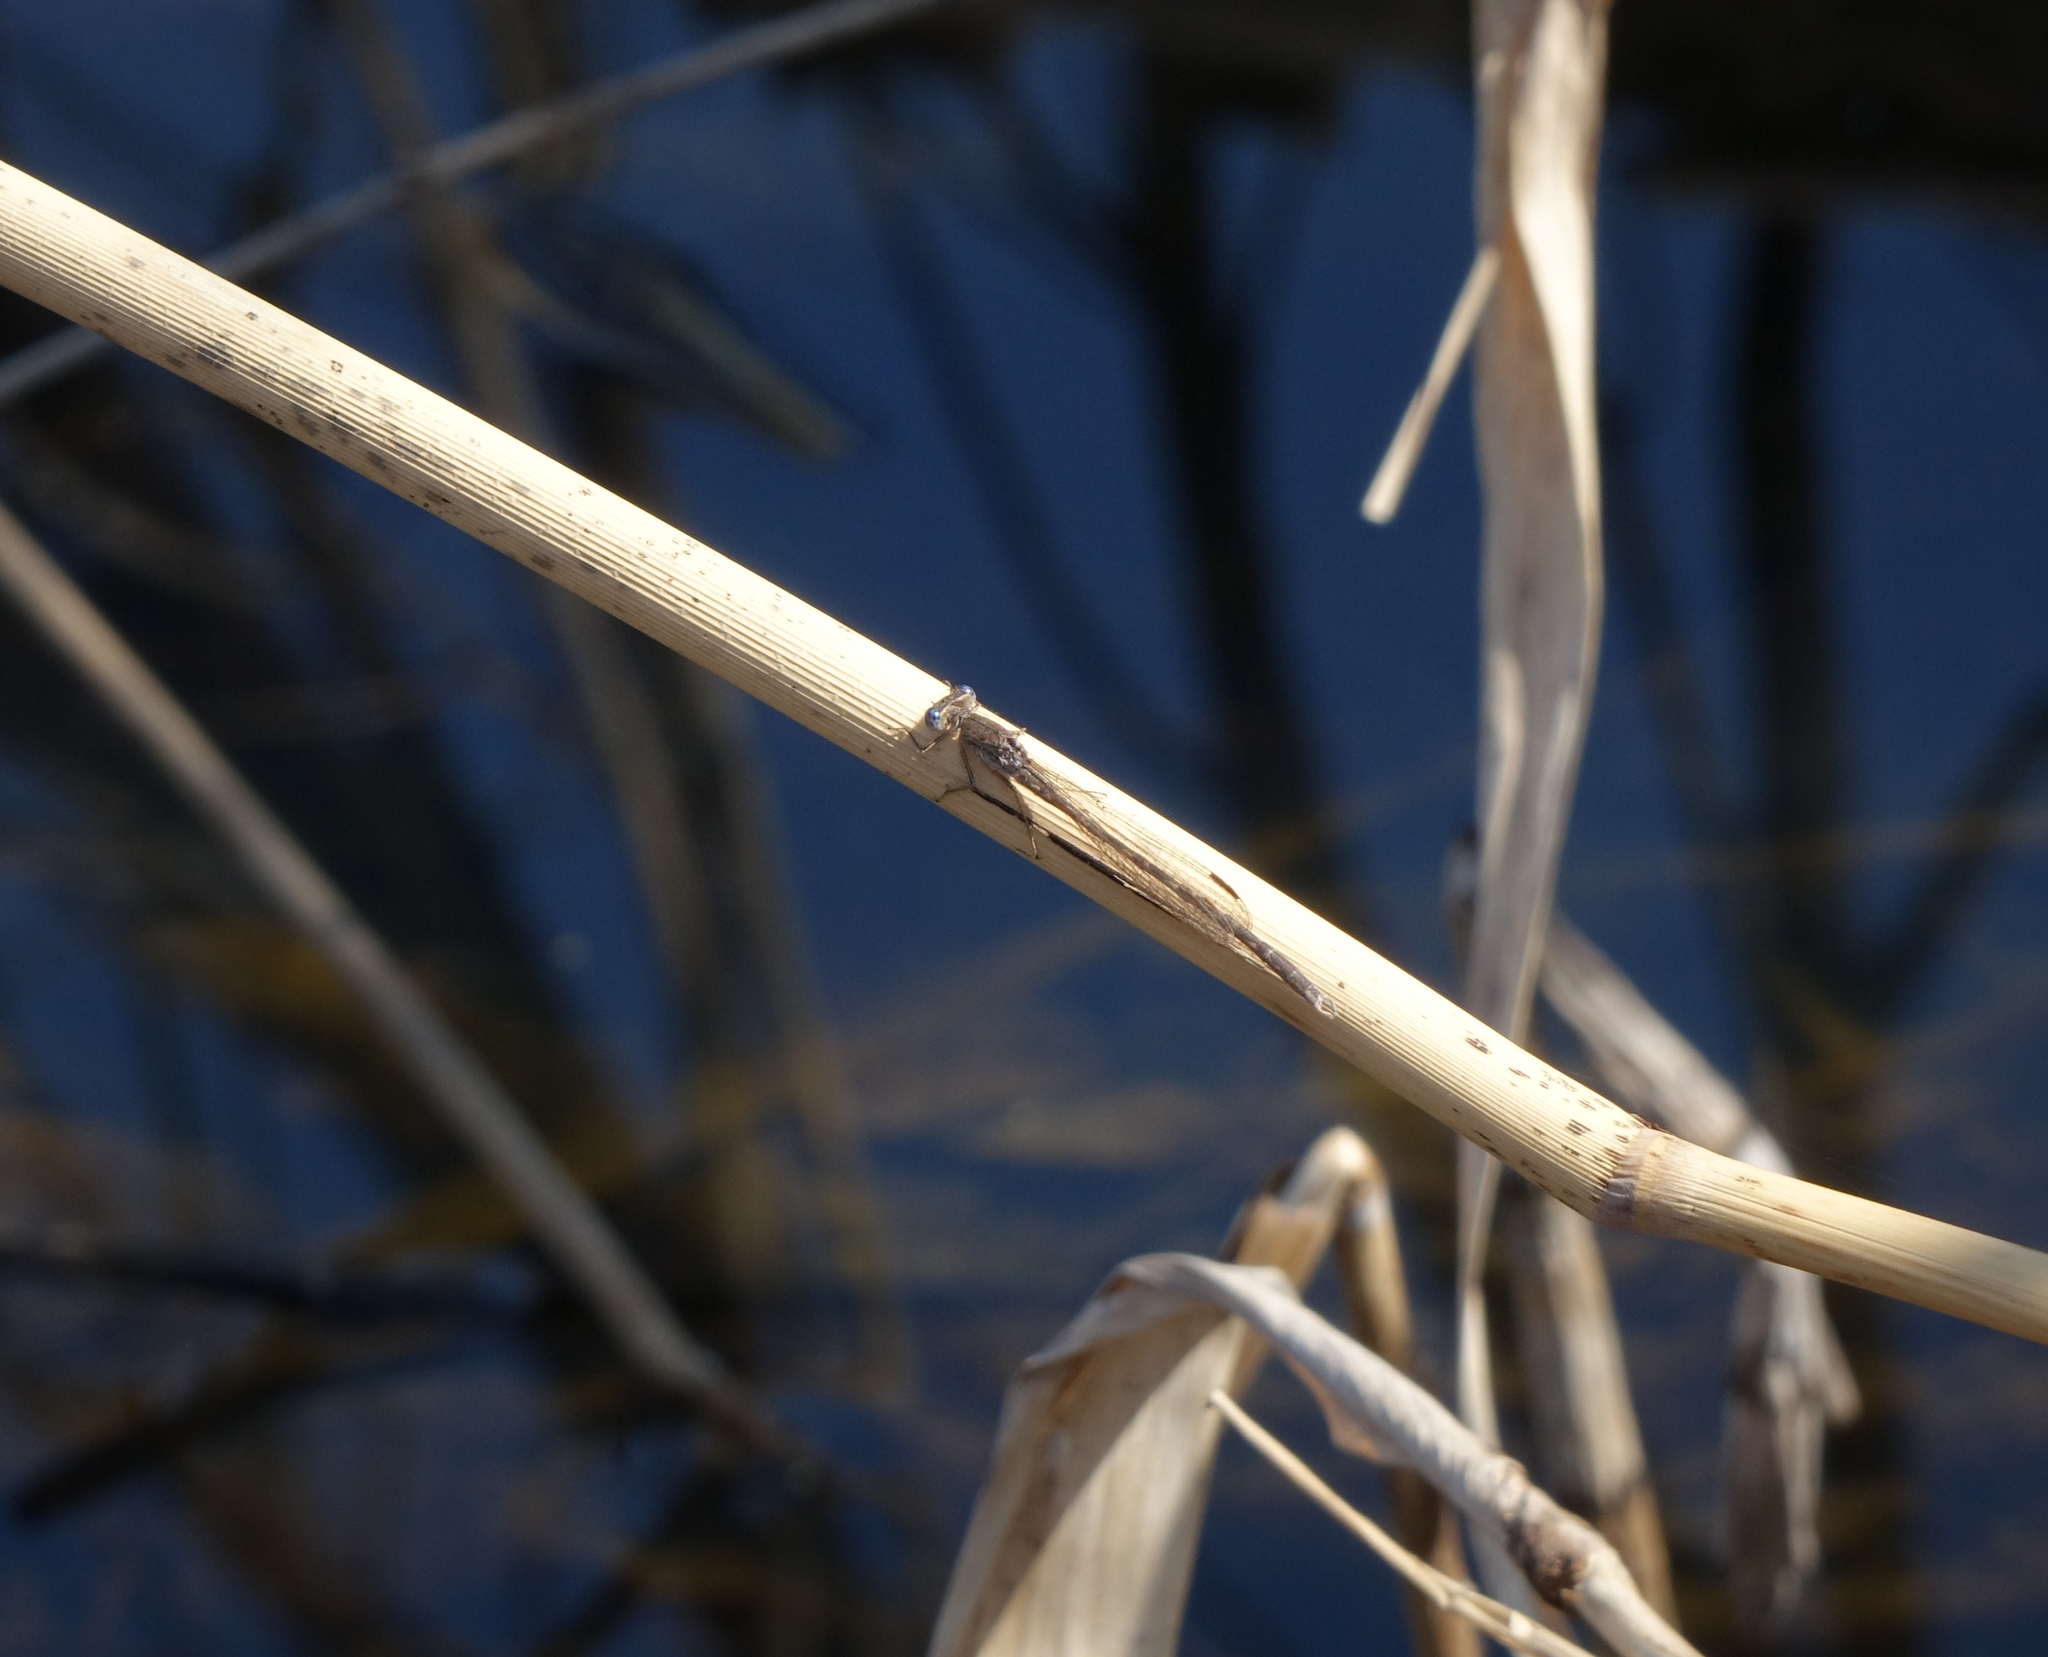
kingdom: Animalia
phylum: Arthropoda
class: Insecta
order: Odonata
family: Lestidae
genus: Sympecma
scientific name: Sympecma paedisca
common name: Siberian winter damsel
